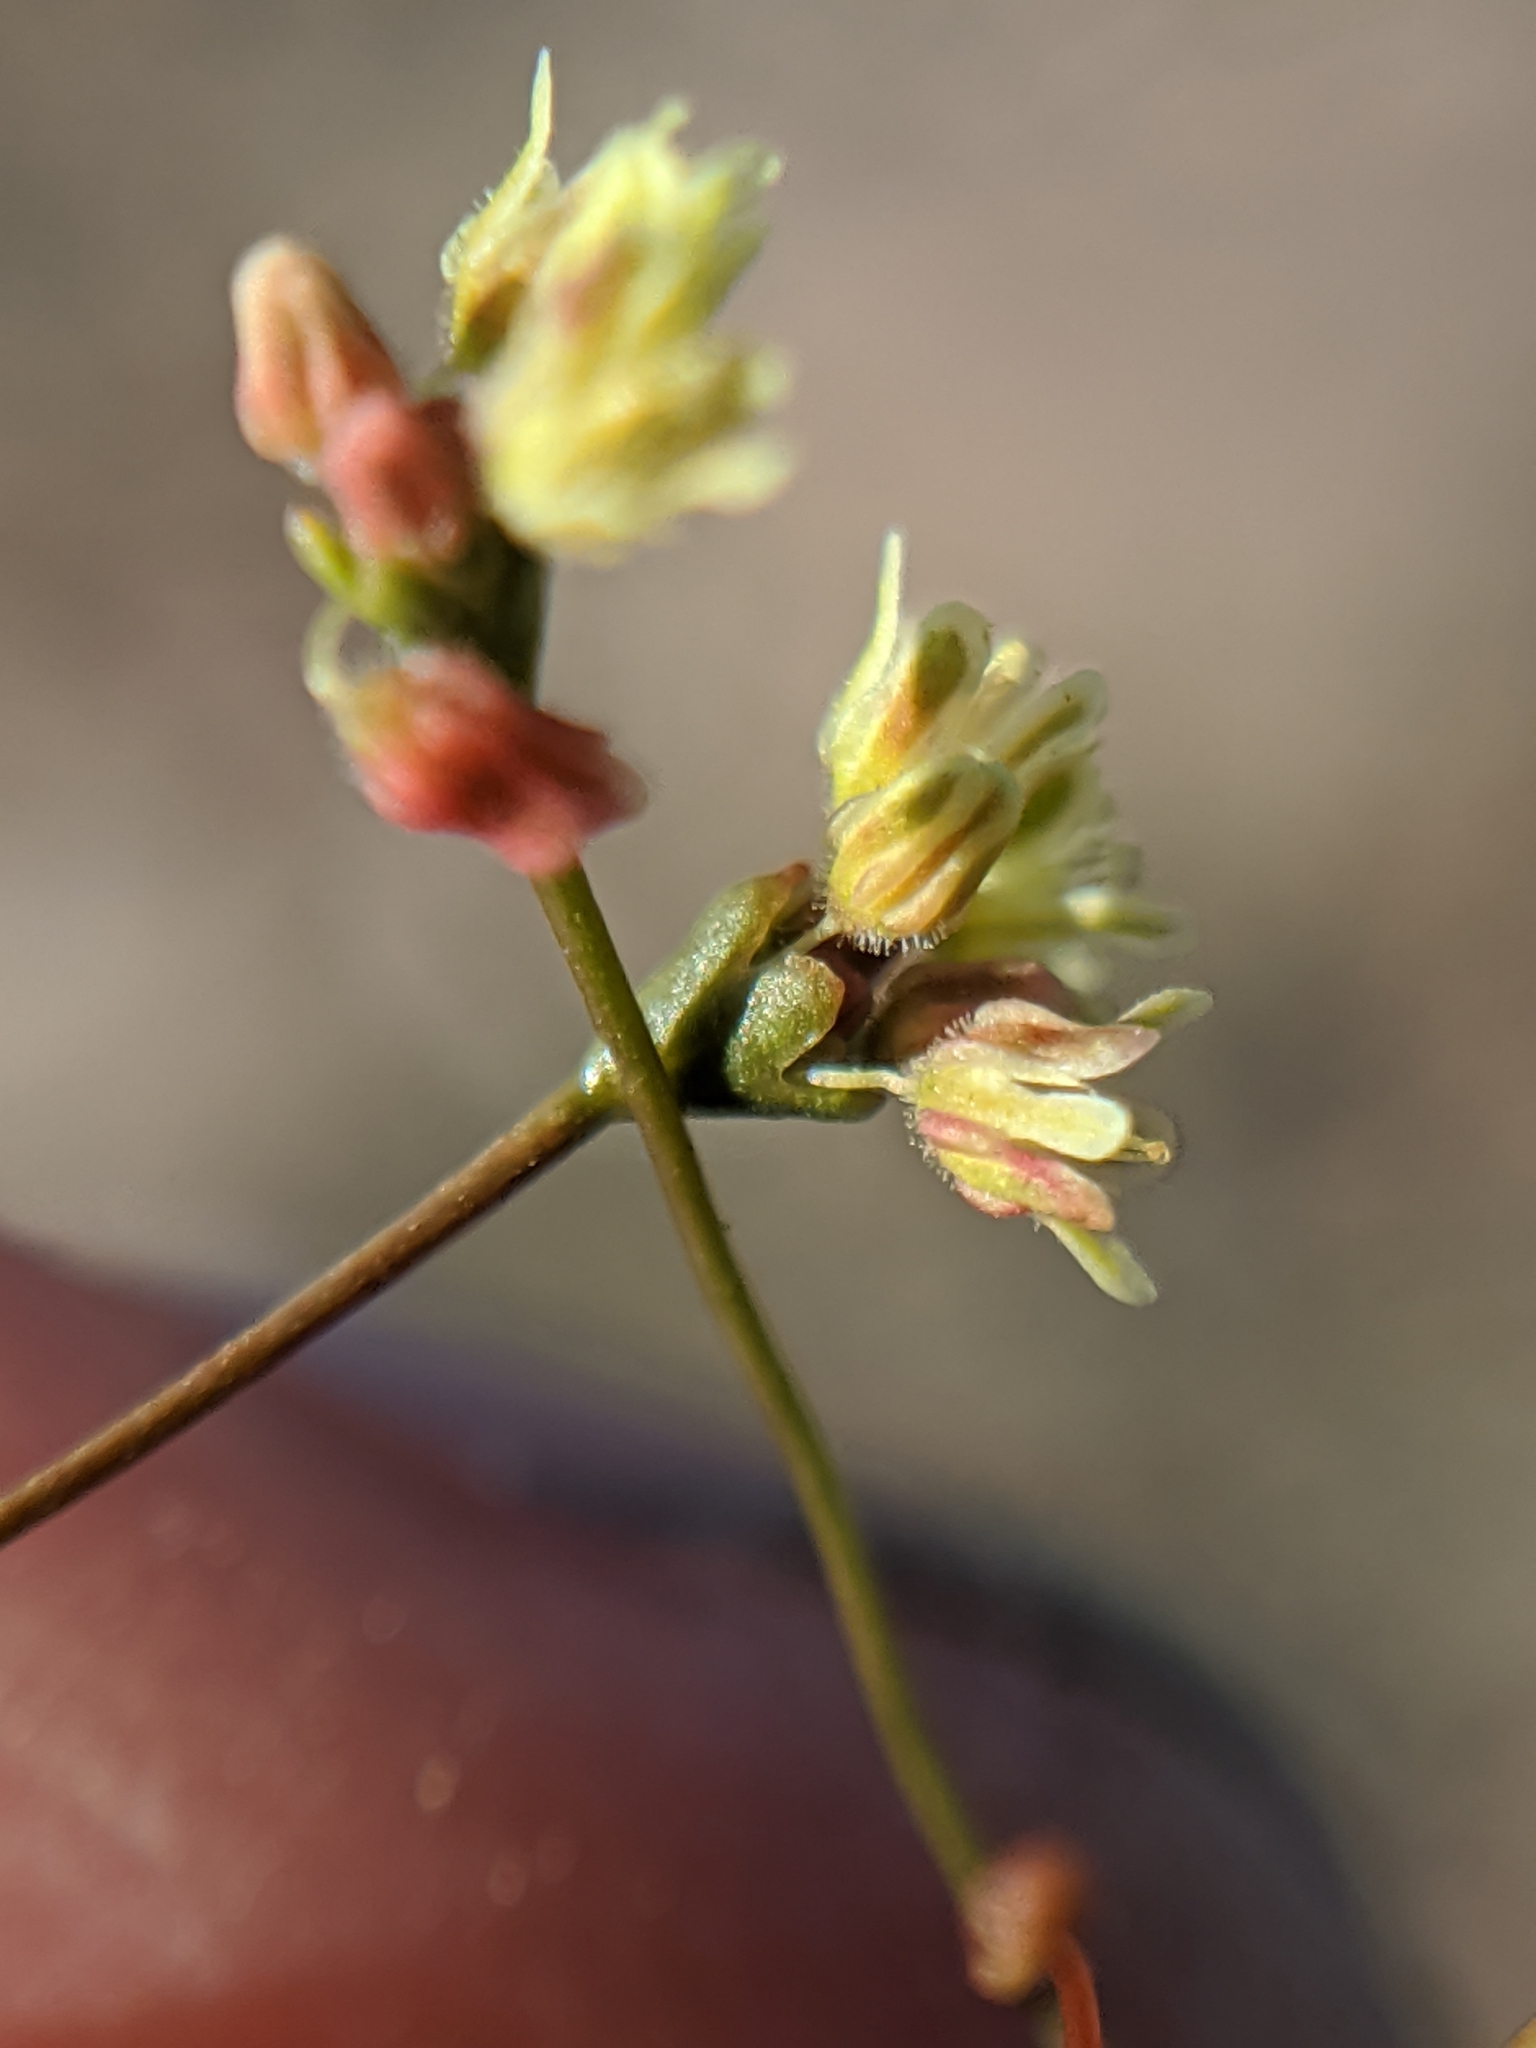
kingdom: Plantae
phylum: Tracheophyta
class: Magnoliopsida
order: Caryophyllales
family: Polygonaceae
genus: Eriogonum
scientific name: Eriogonum pusillum
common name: Yellow turbans
